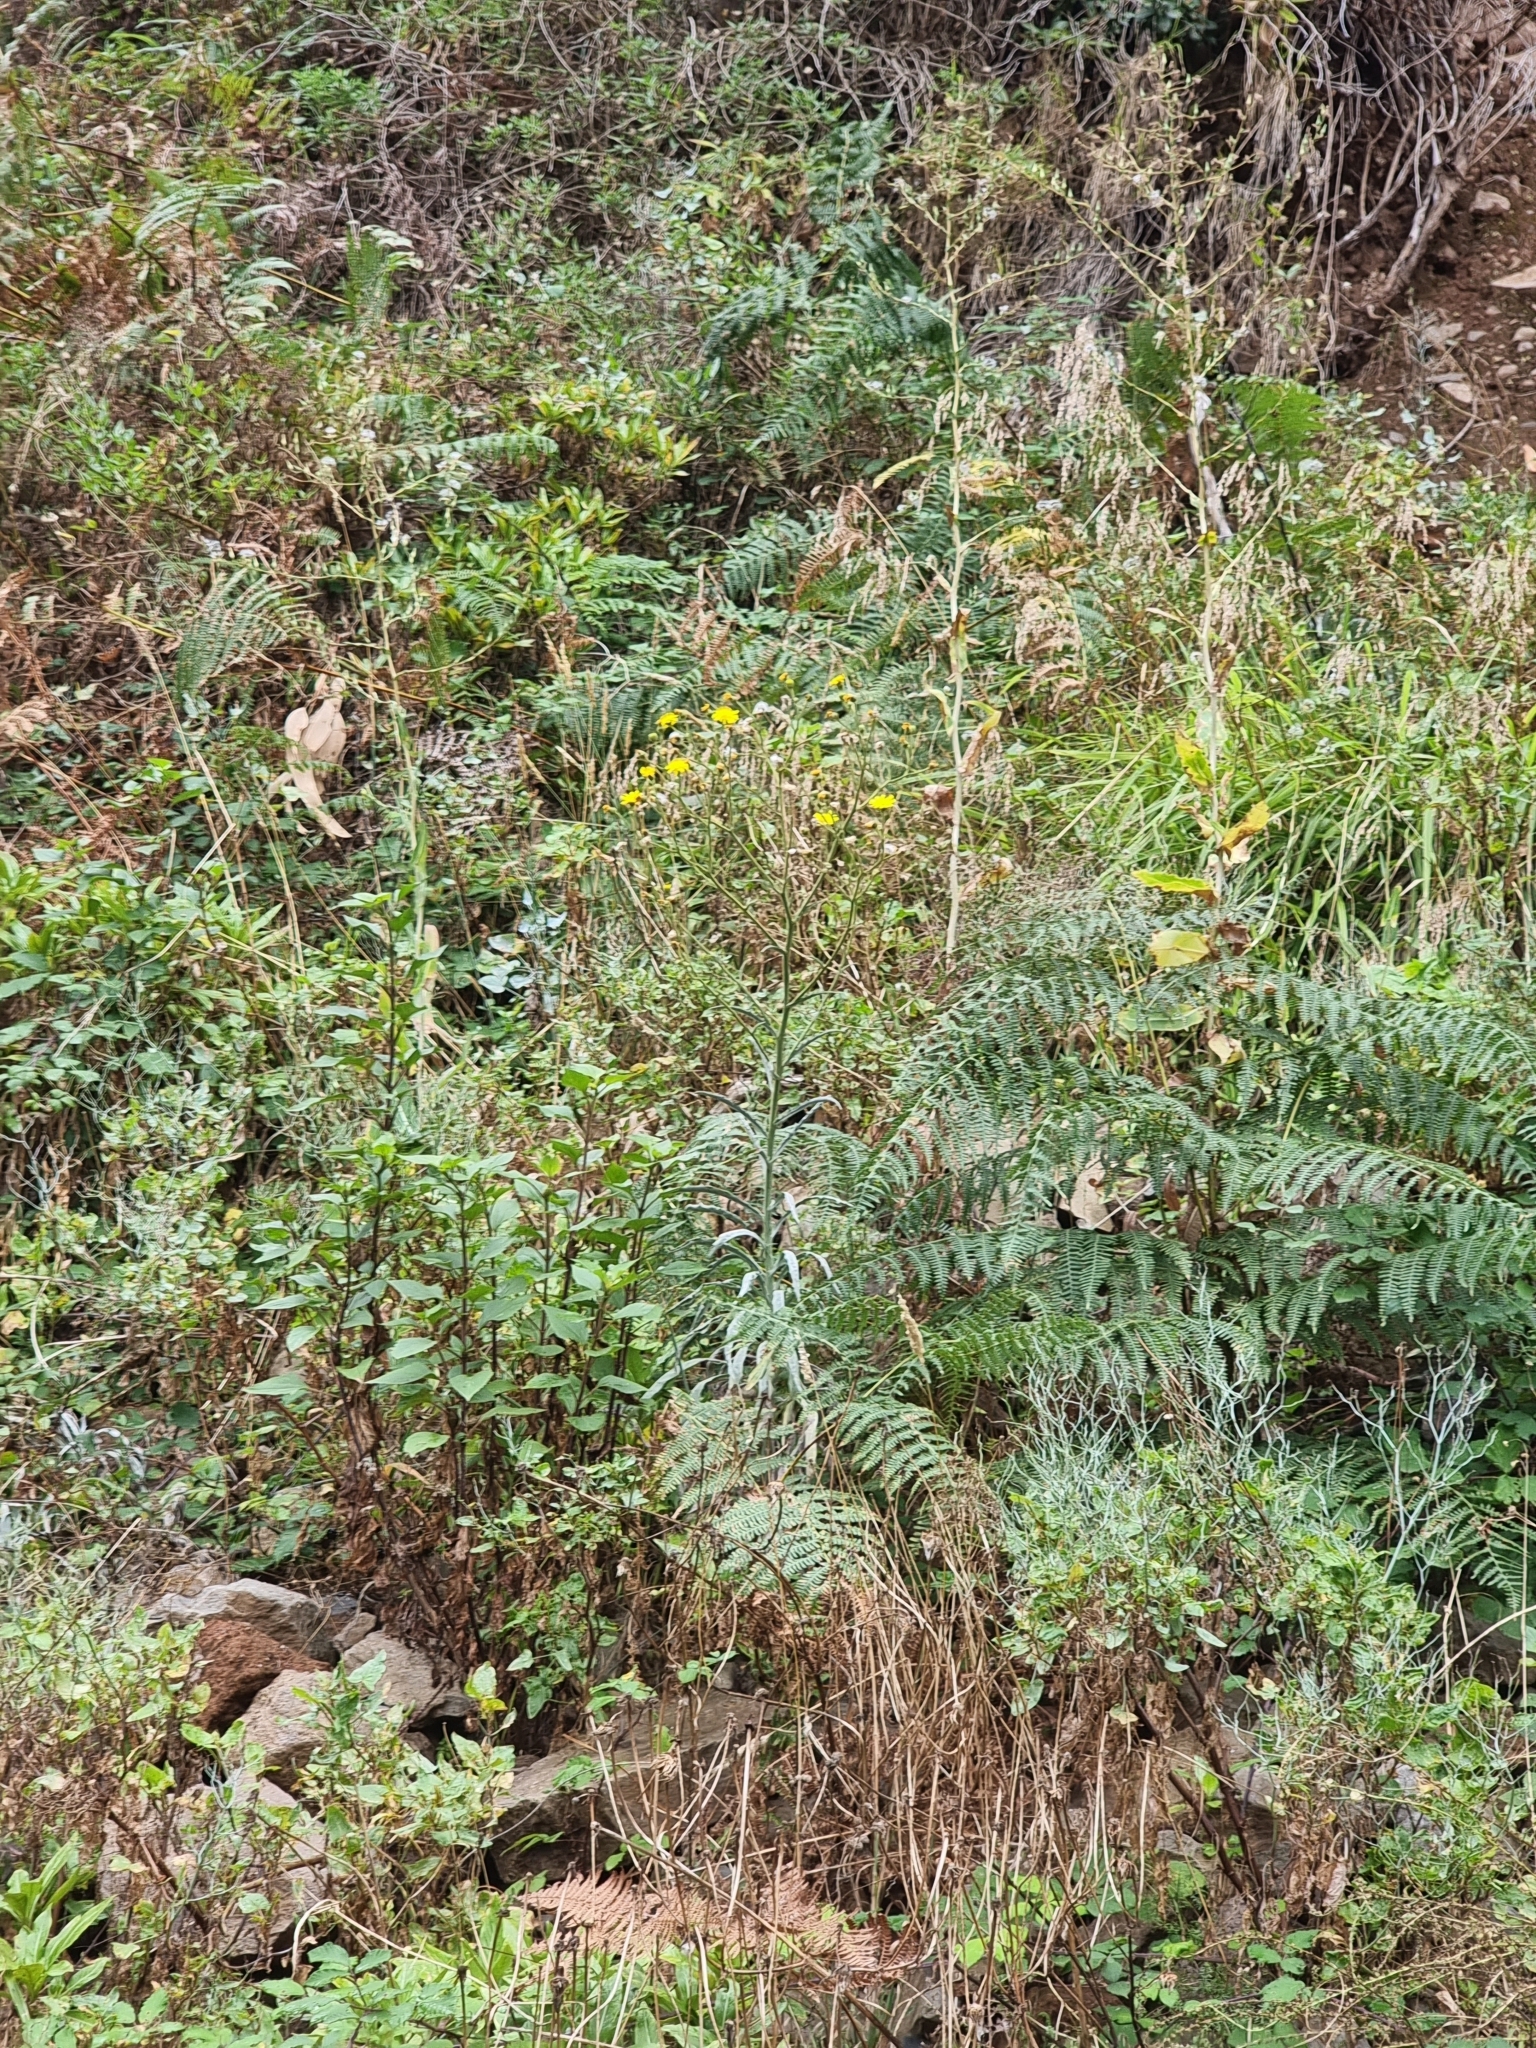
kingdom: Plantae
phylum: Tracheophyta
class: Magnoliopsida
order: Asterales
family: Asteraceae
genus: Andryala
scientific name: Andryala glandulosa
